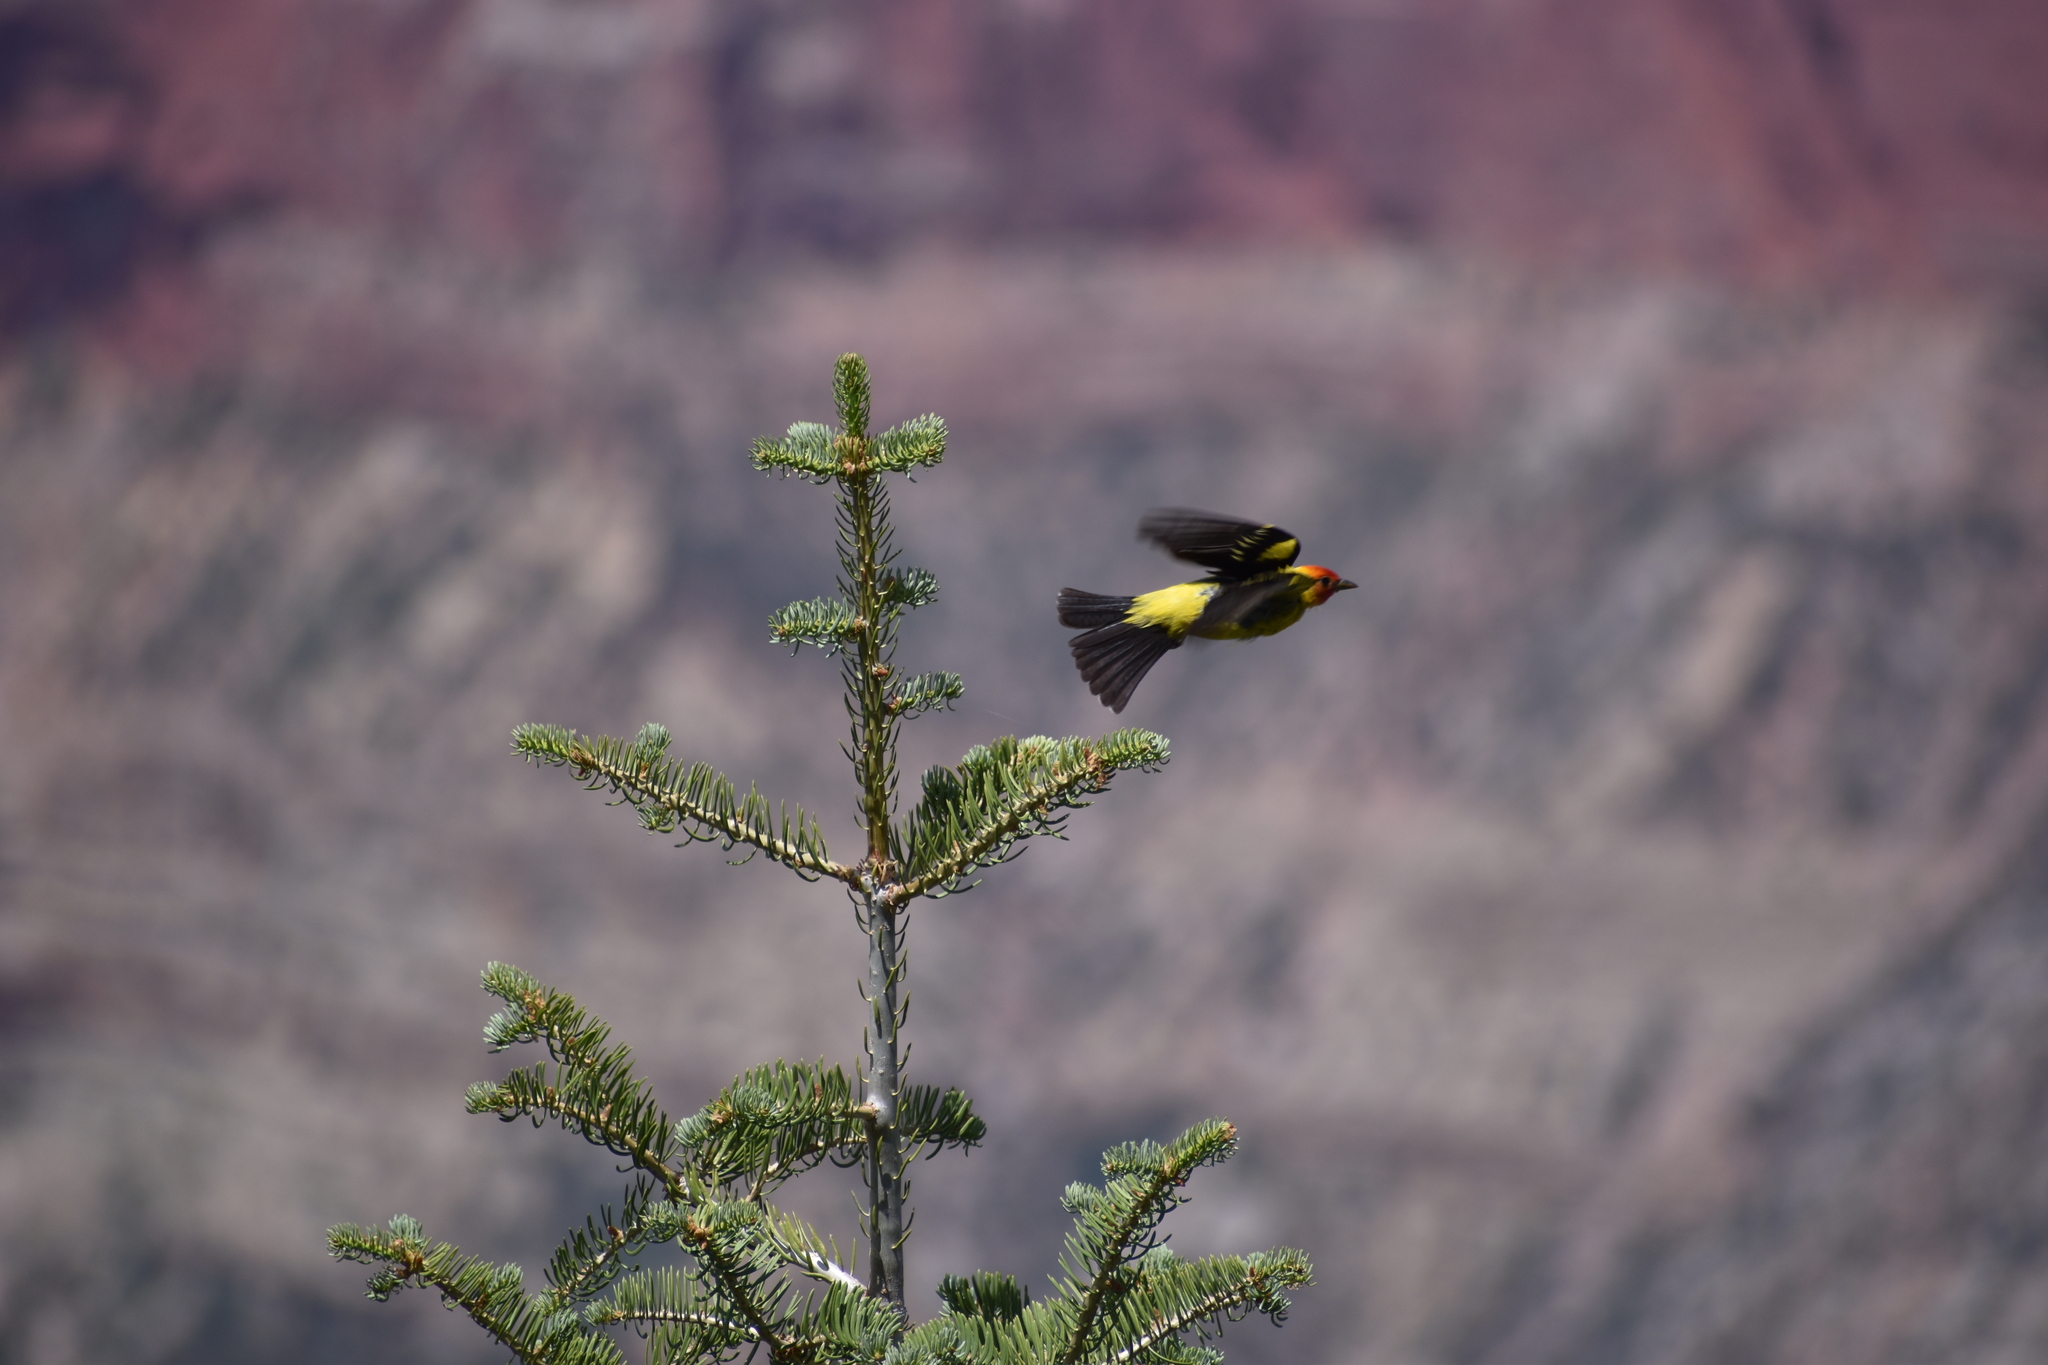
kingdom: Animalia
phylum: Chordata
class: Aves
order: Passeriformes
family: Cardinalidae
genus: Piranga
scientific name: Piranga ludoviciana
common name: Western tanager
